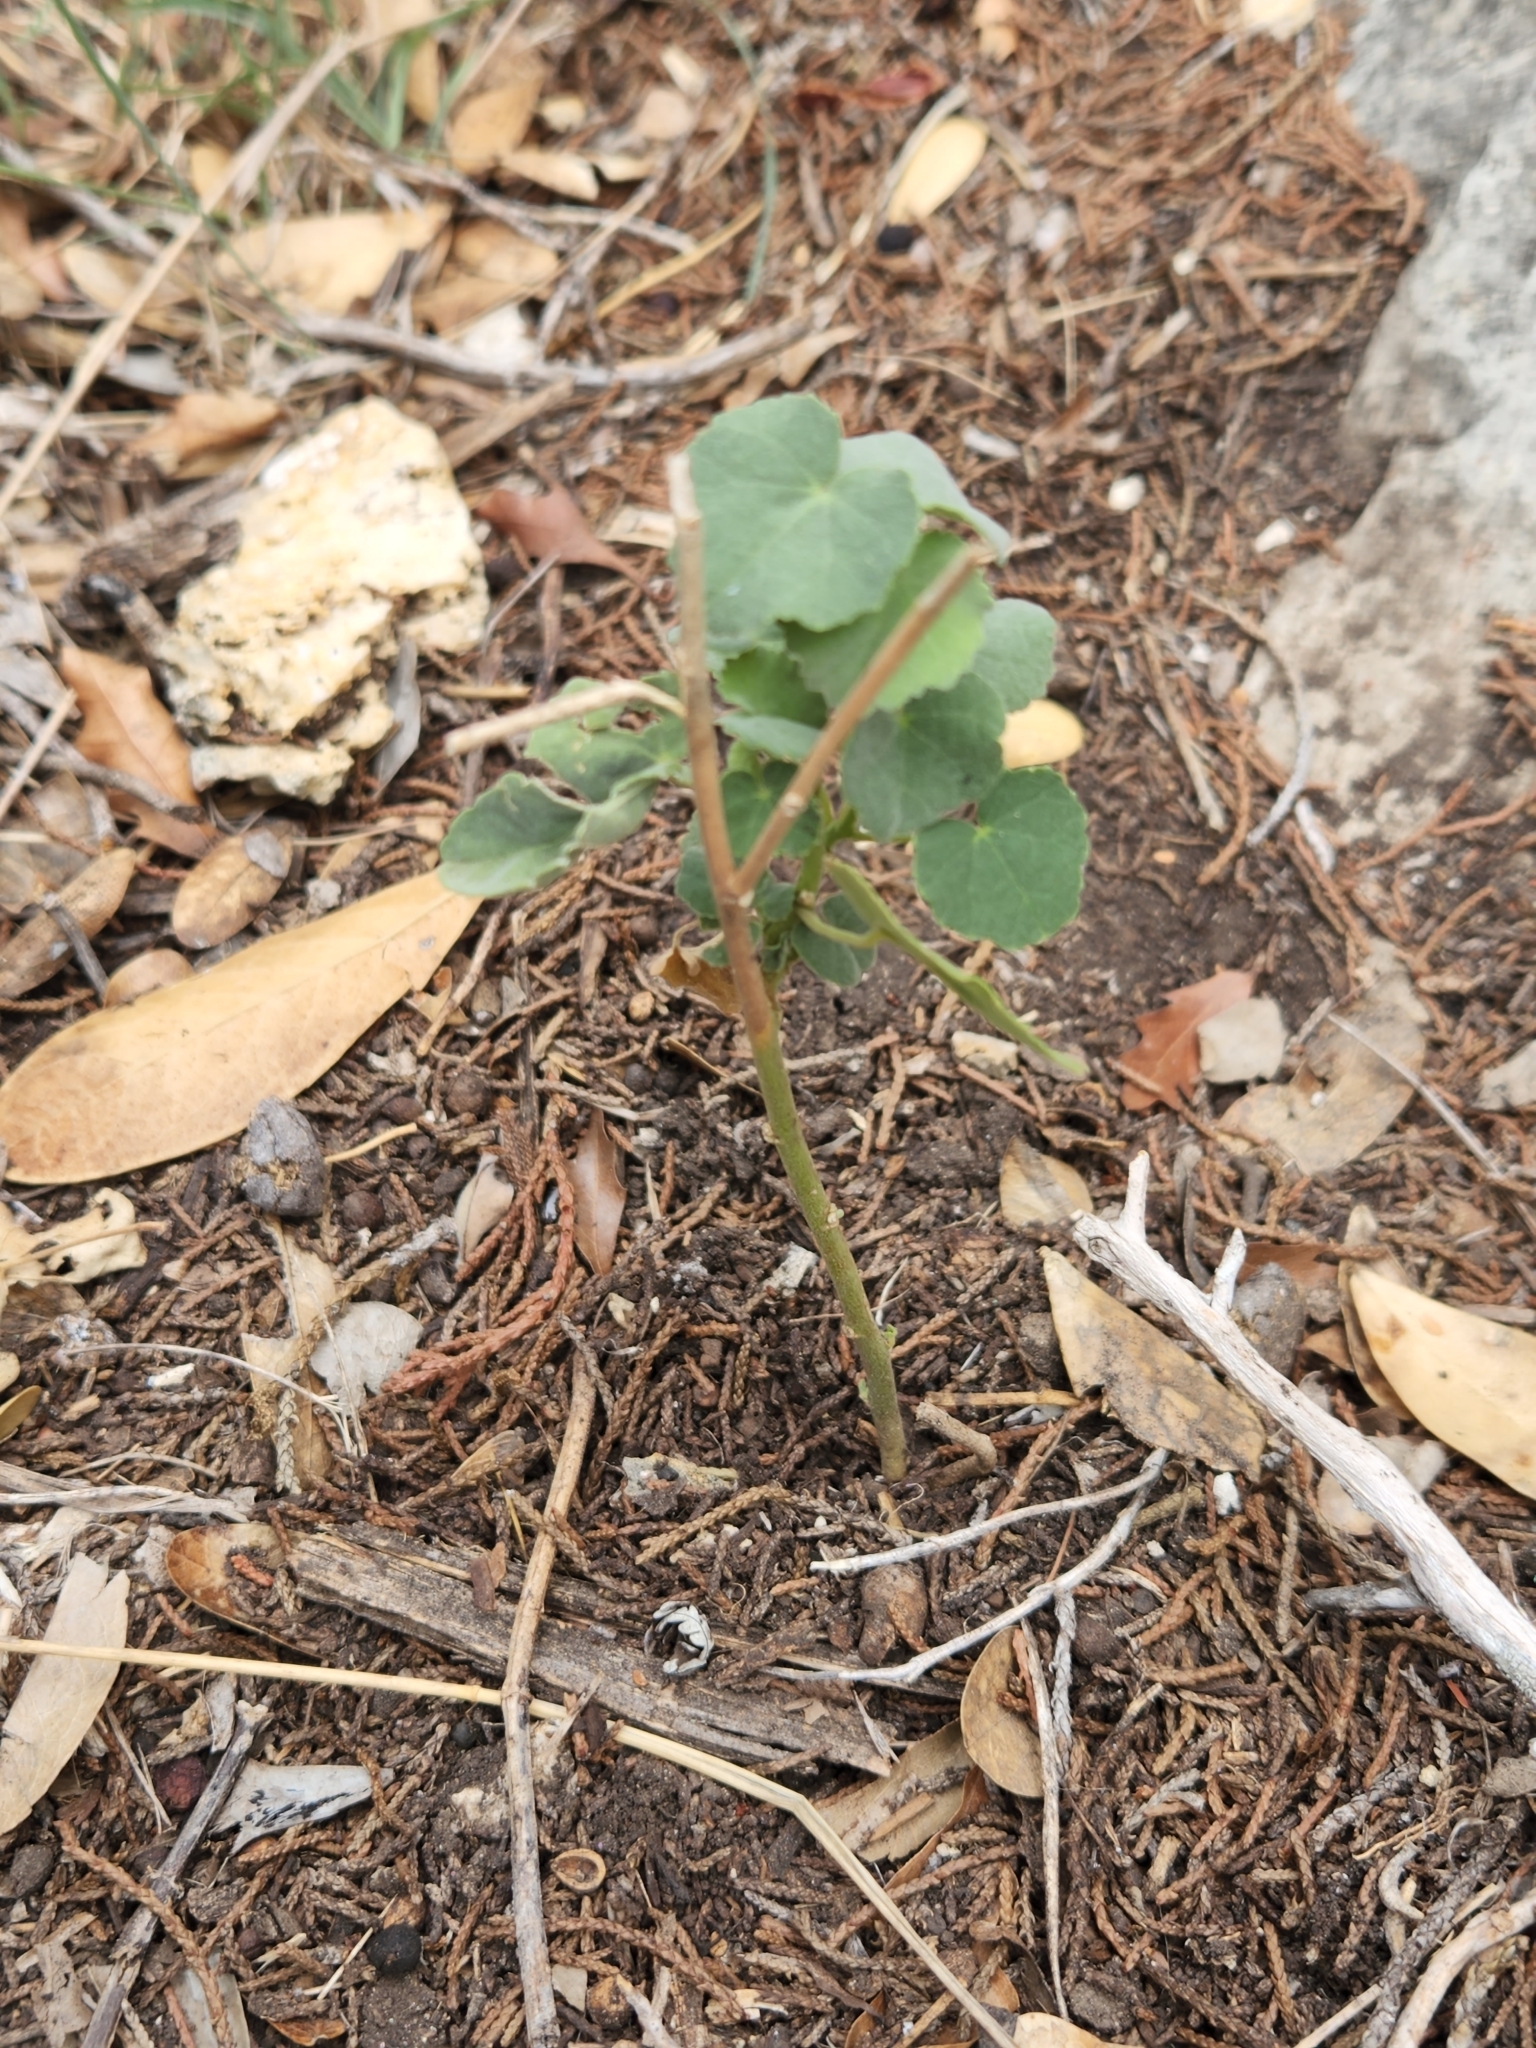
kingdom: Plantae
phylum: Tracheophyta
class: Magnoliopsida
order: Malvales
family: Malvaceae
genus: Allowissadula
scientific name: Allowissadula holosericea
